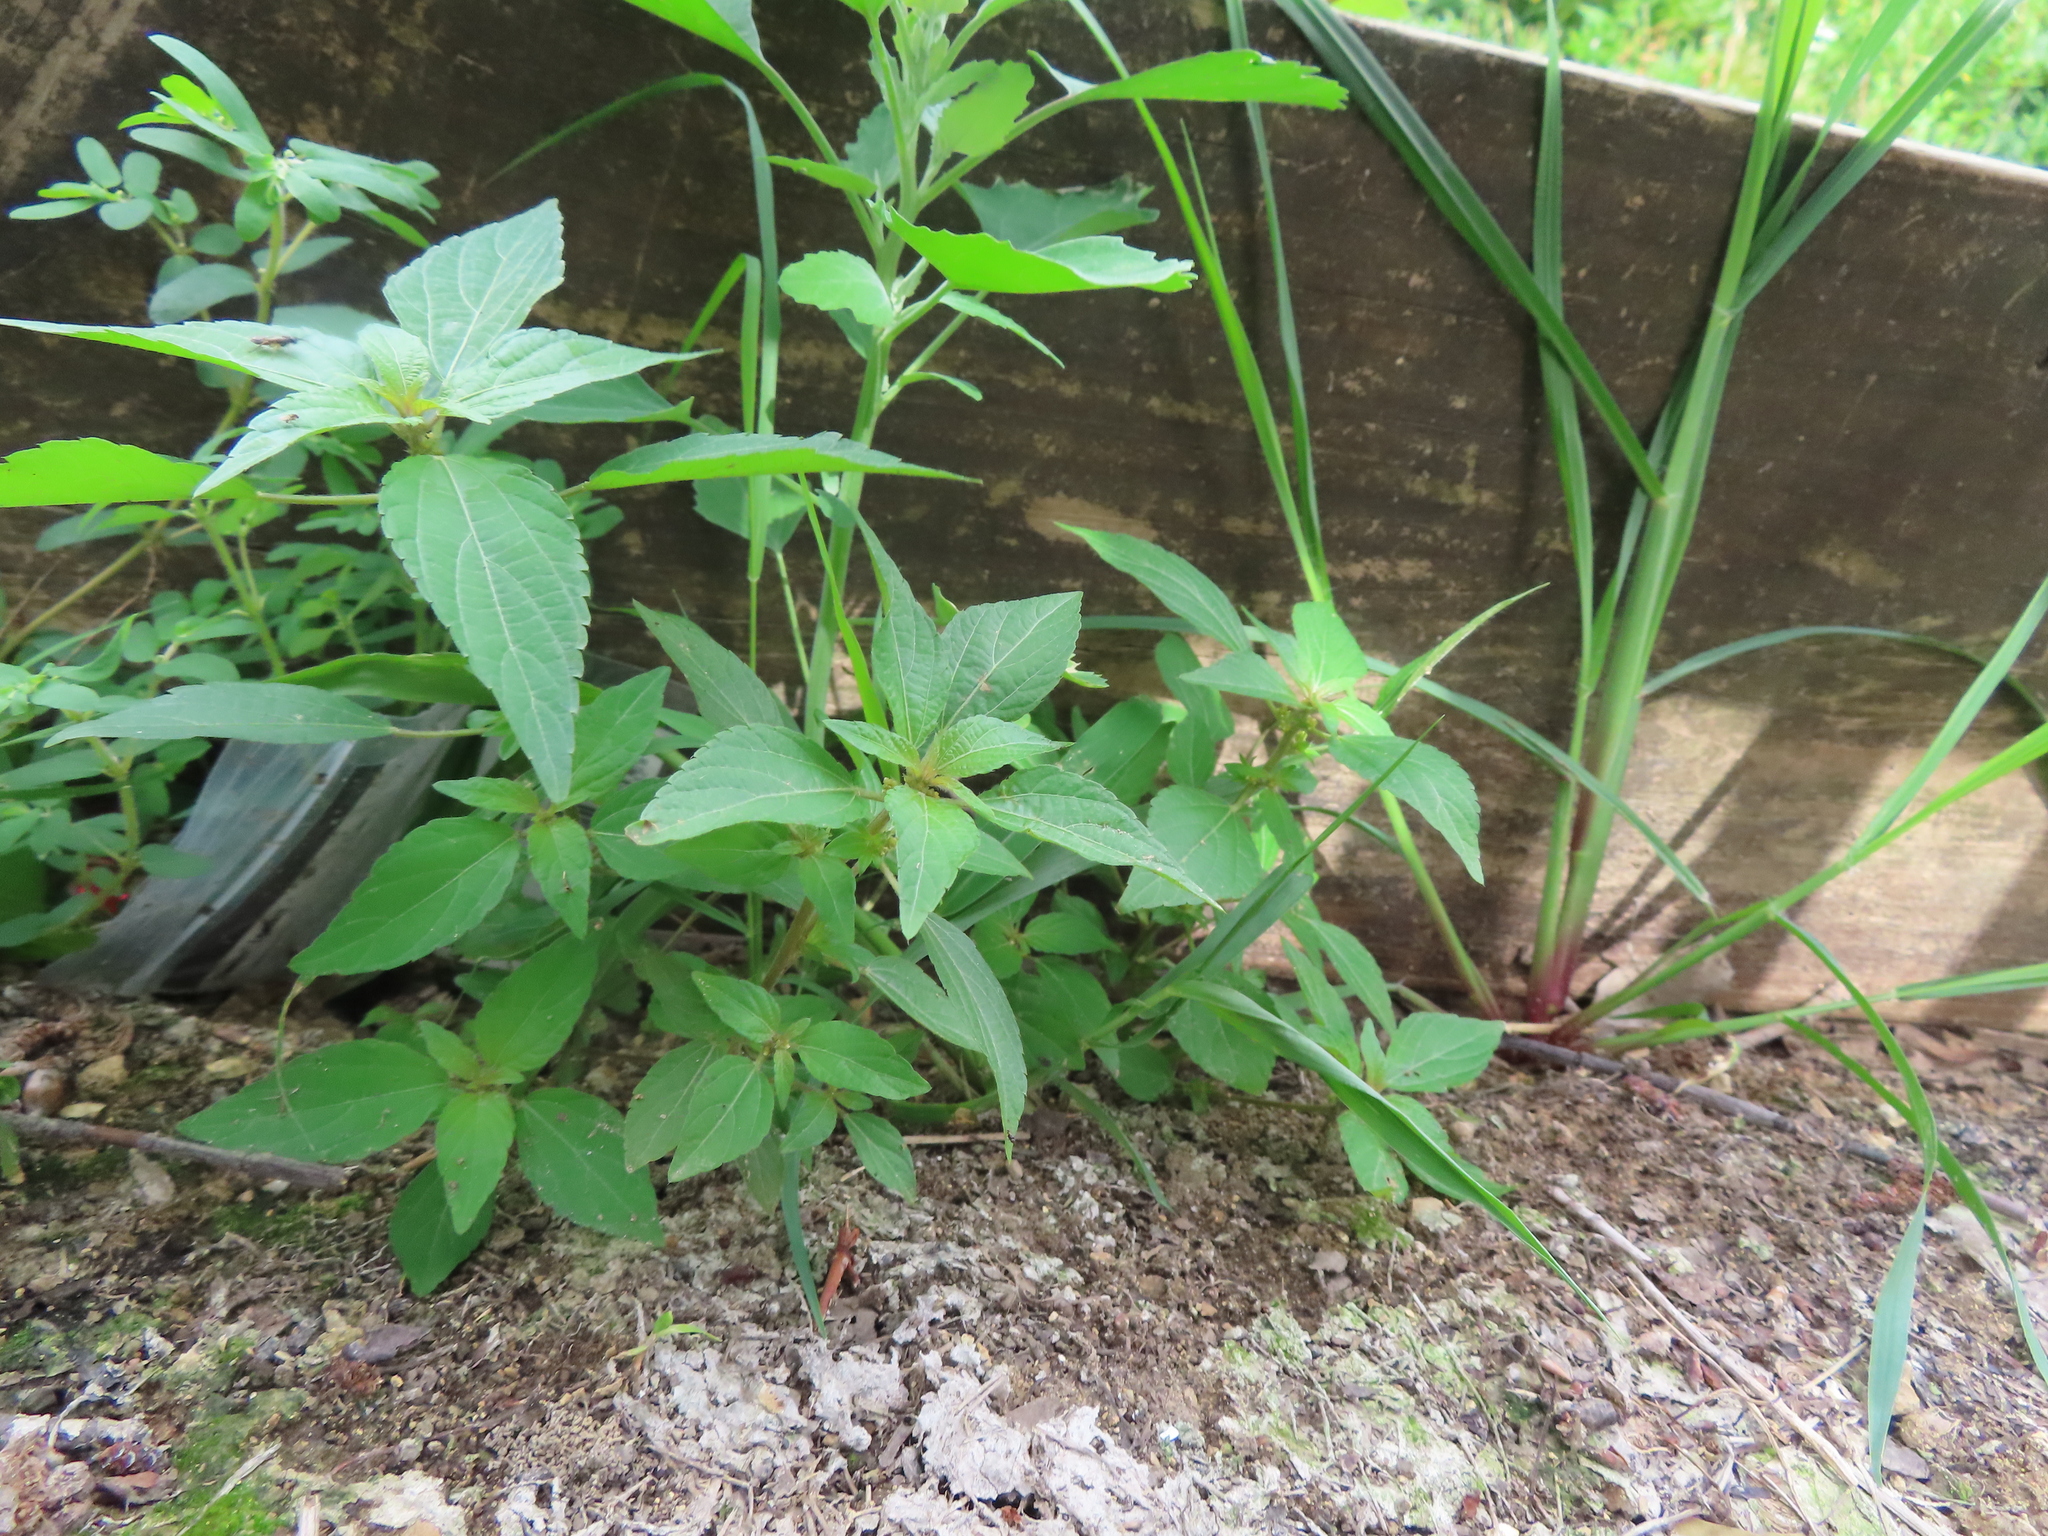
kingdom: Plantae
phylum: Tracheophyta
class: Magnoliopsida
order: Malpighiales
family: Euphorbiaceae
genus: Acalypha
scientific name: Acalypha rhomboidea
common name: Rhombic copperleaf
